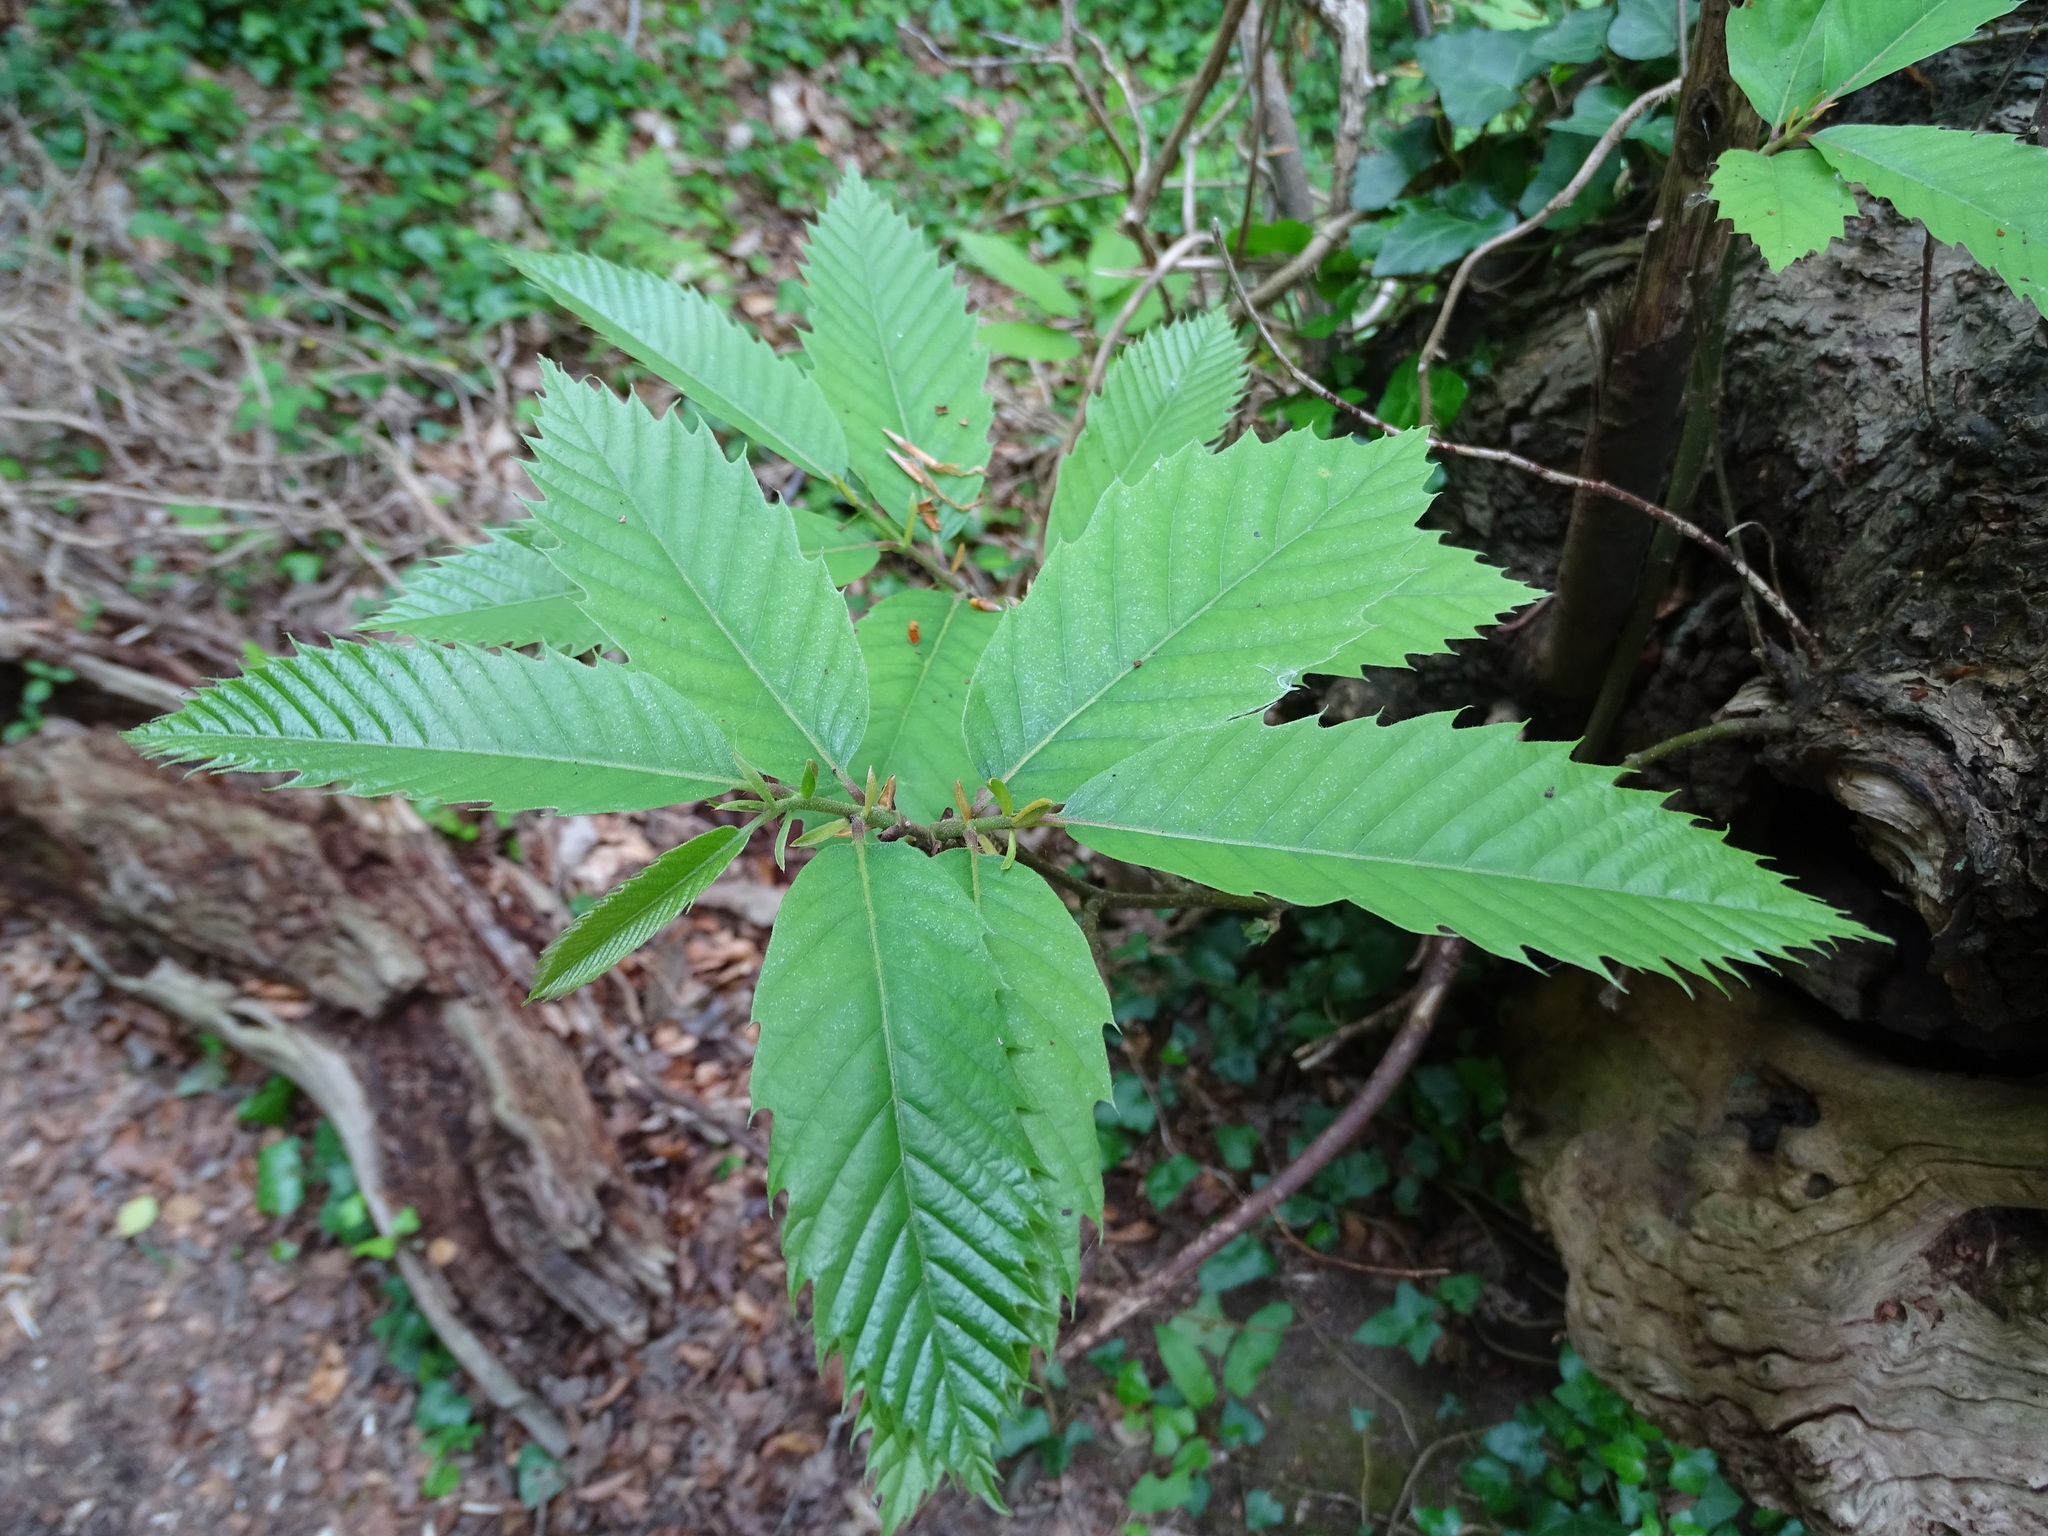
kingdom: Plantae
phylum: Tracheophyta
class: Magnoliopsida
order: Fagales
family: Fagaceae
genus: Castanea
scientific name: Castanea sativa
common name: Sweet chestnut
